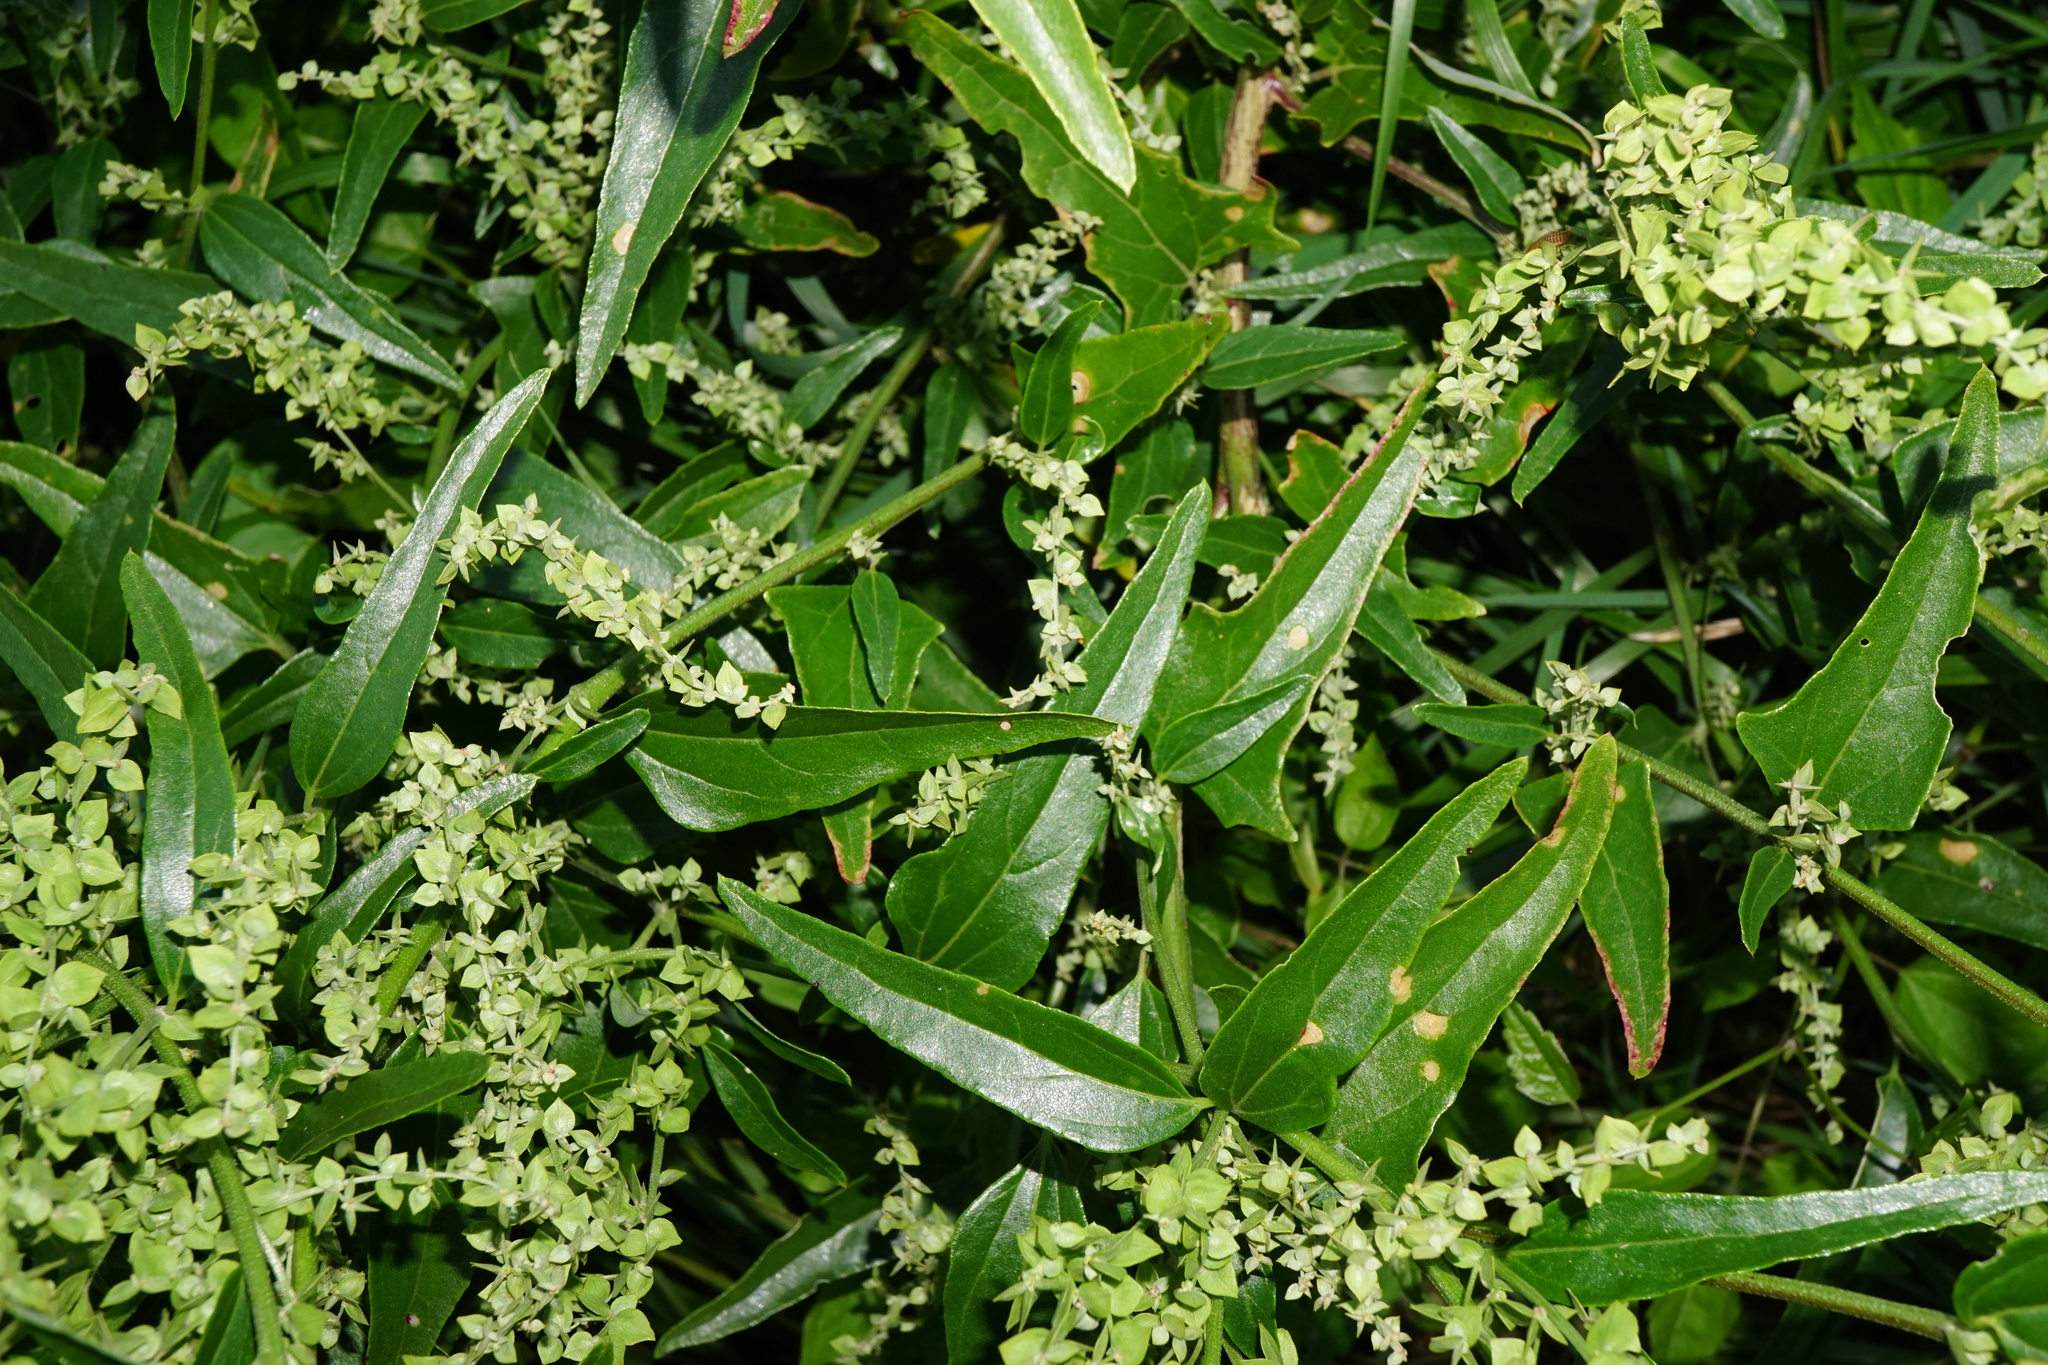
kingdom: Plantae
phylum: Tracheophyta
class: Magnoliopsida
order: Caryophyllales
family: Amaranthaceae
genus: Atriplex
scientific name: Atriplex sagittata
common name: Purple orache
